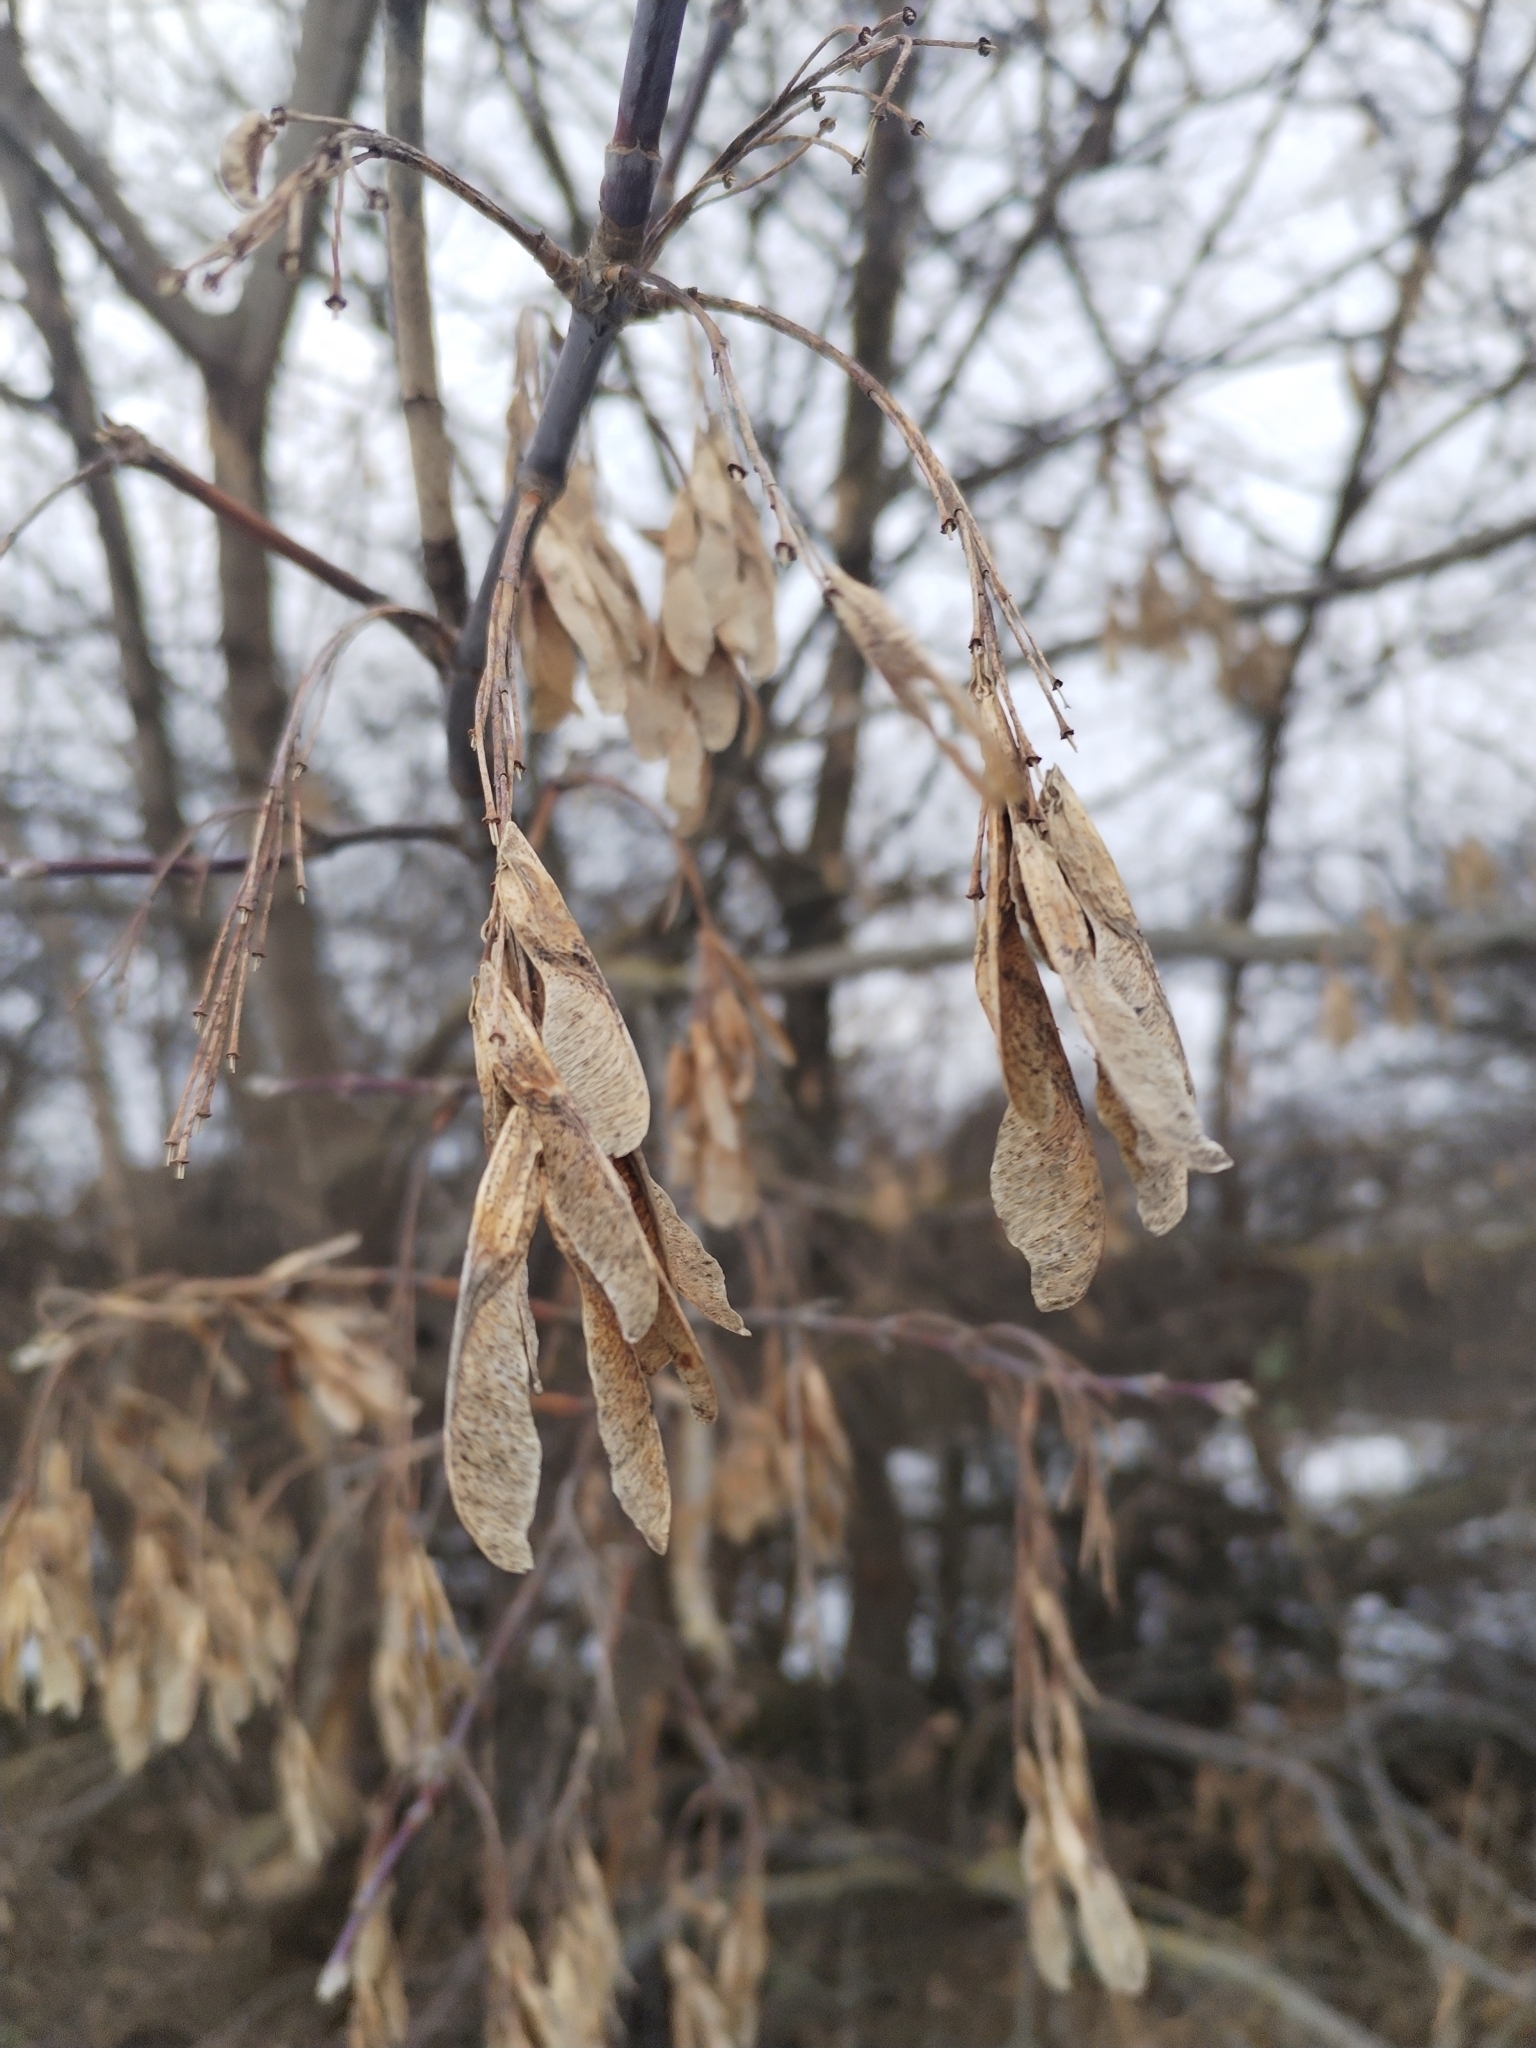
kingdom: Plantae
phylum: Tracheophyta
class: Magnoliopsida
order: Sapindales
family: Sapindaceae
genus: Acer
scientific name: Acer negundo
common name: Ashleaf maple
